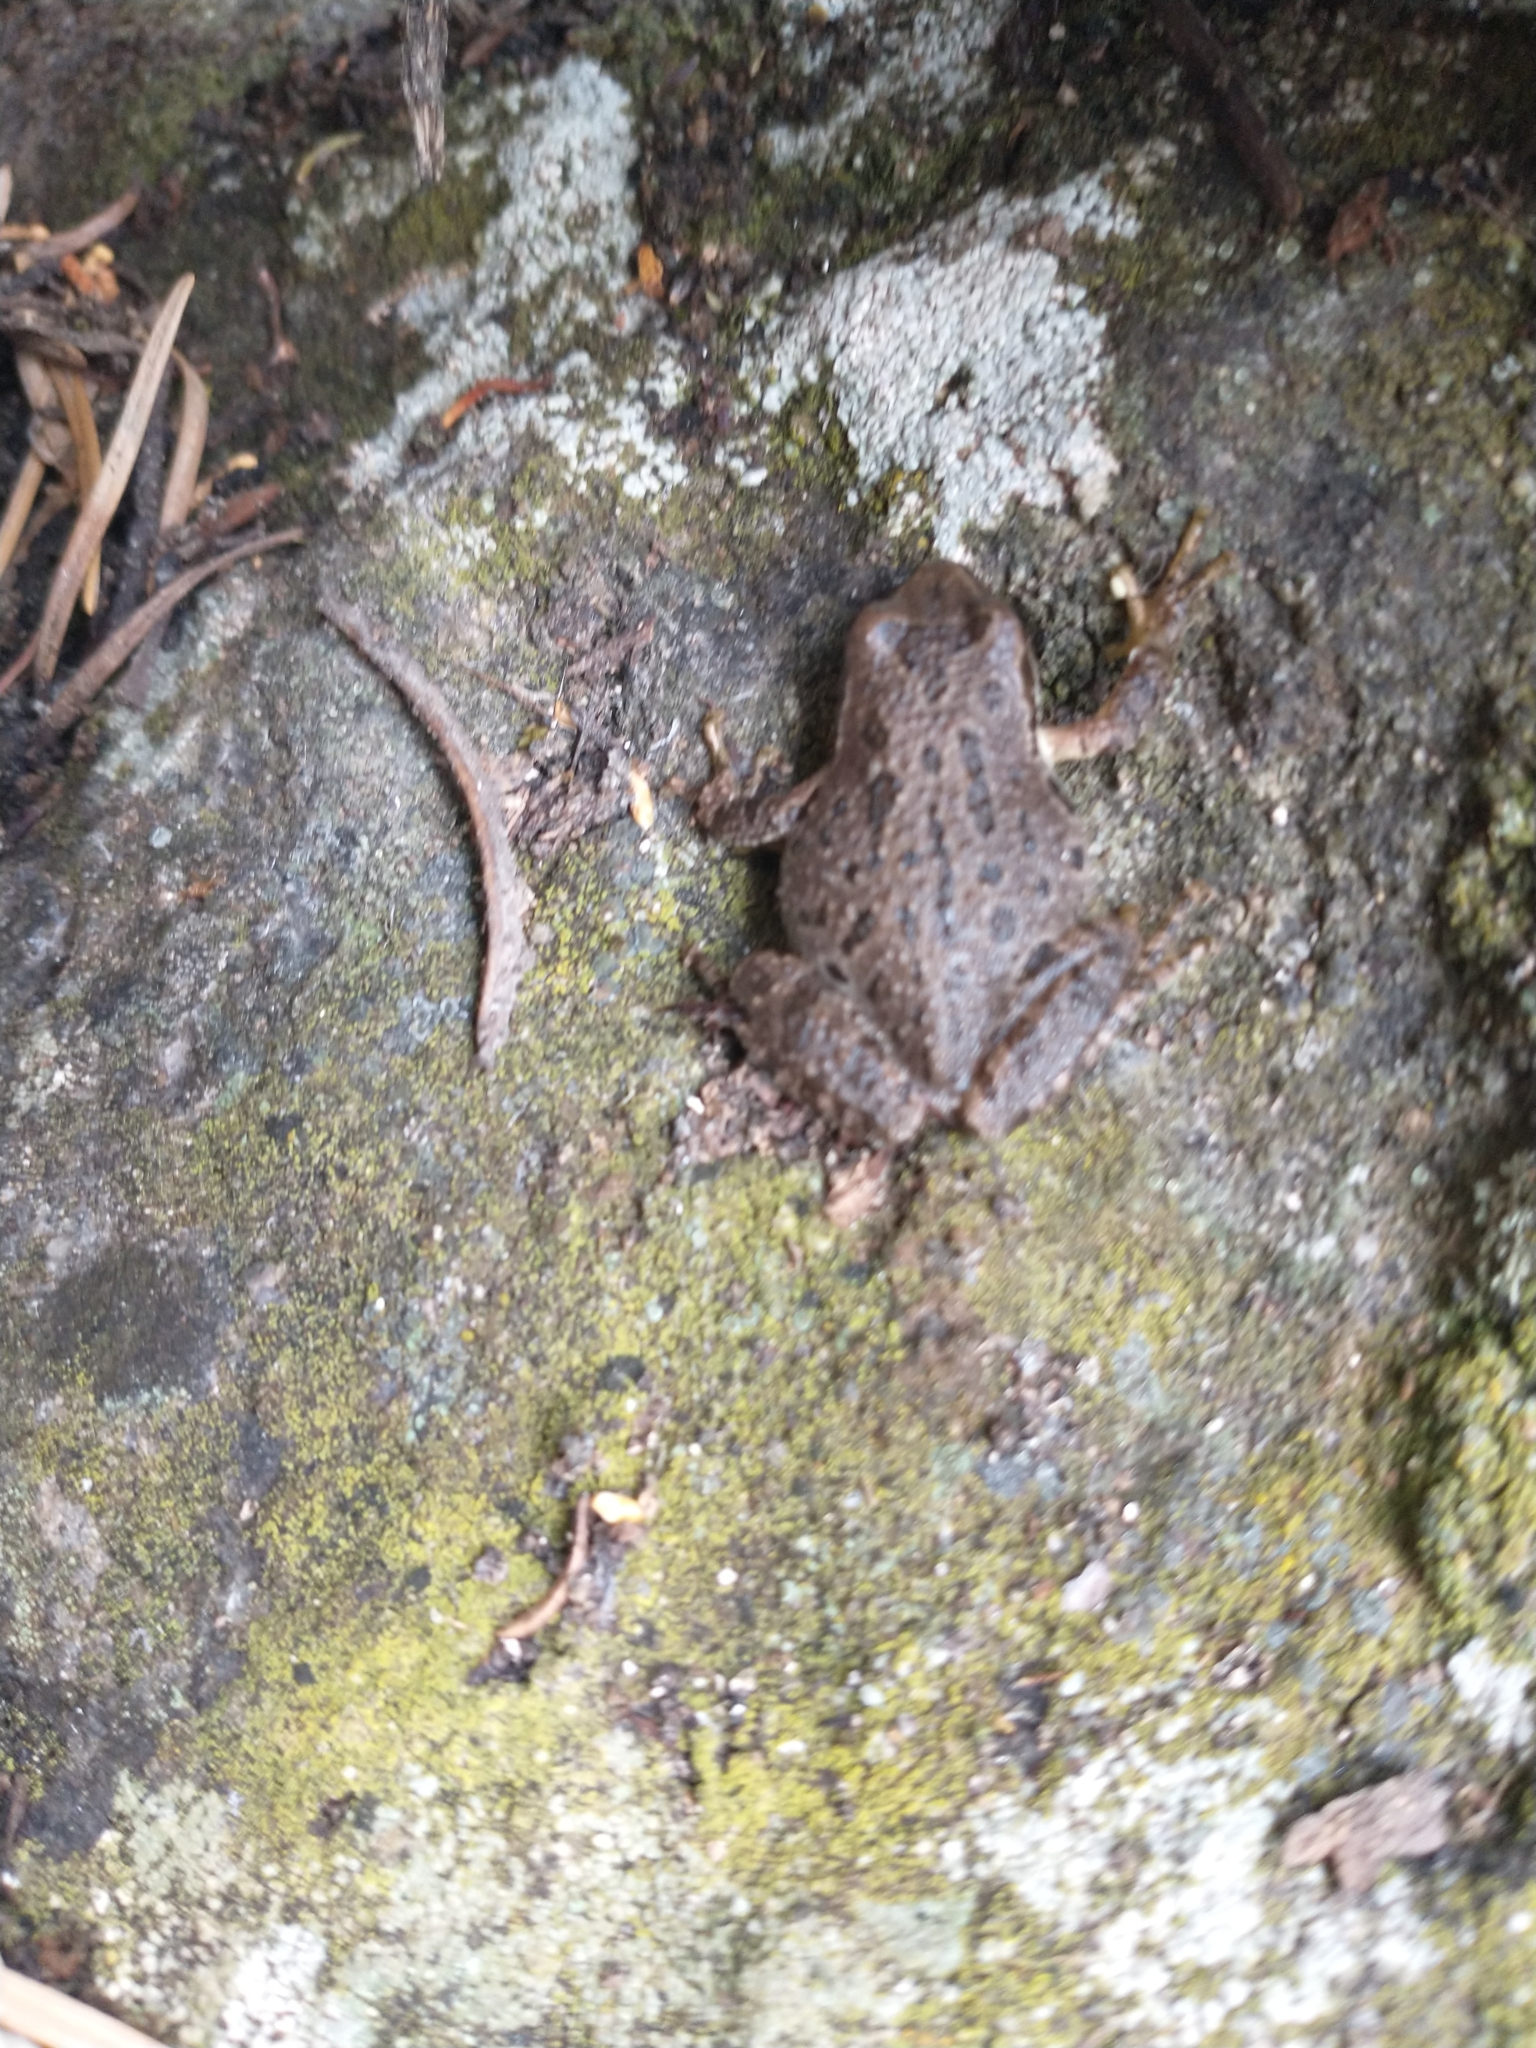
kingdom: Animalia
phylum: Chordata
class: Amphibia
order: Anura
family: Hylidae
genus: Pseudacris
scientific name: Pseudacris regilla
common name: Pacific chorus frog
